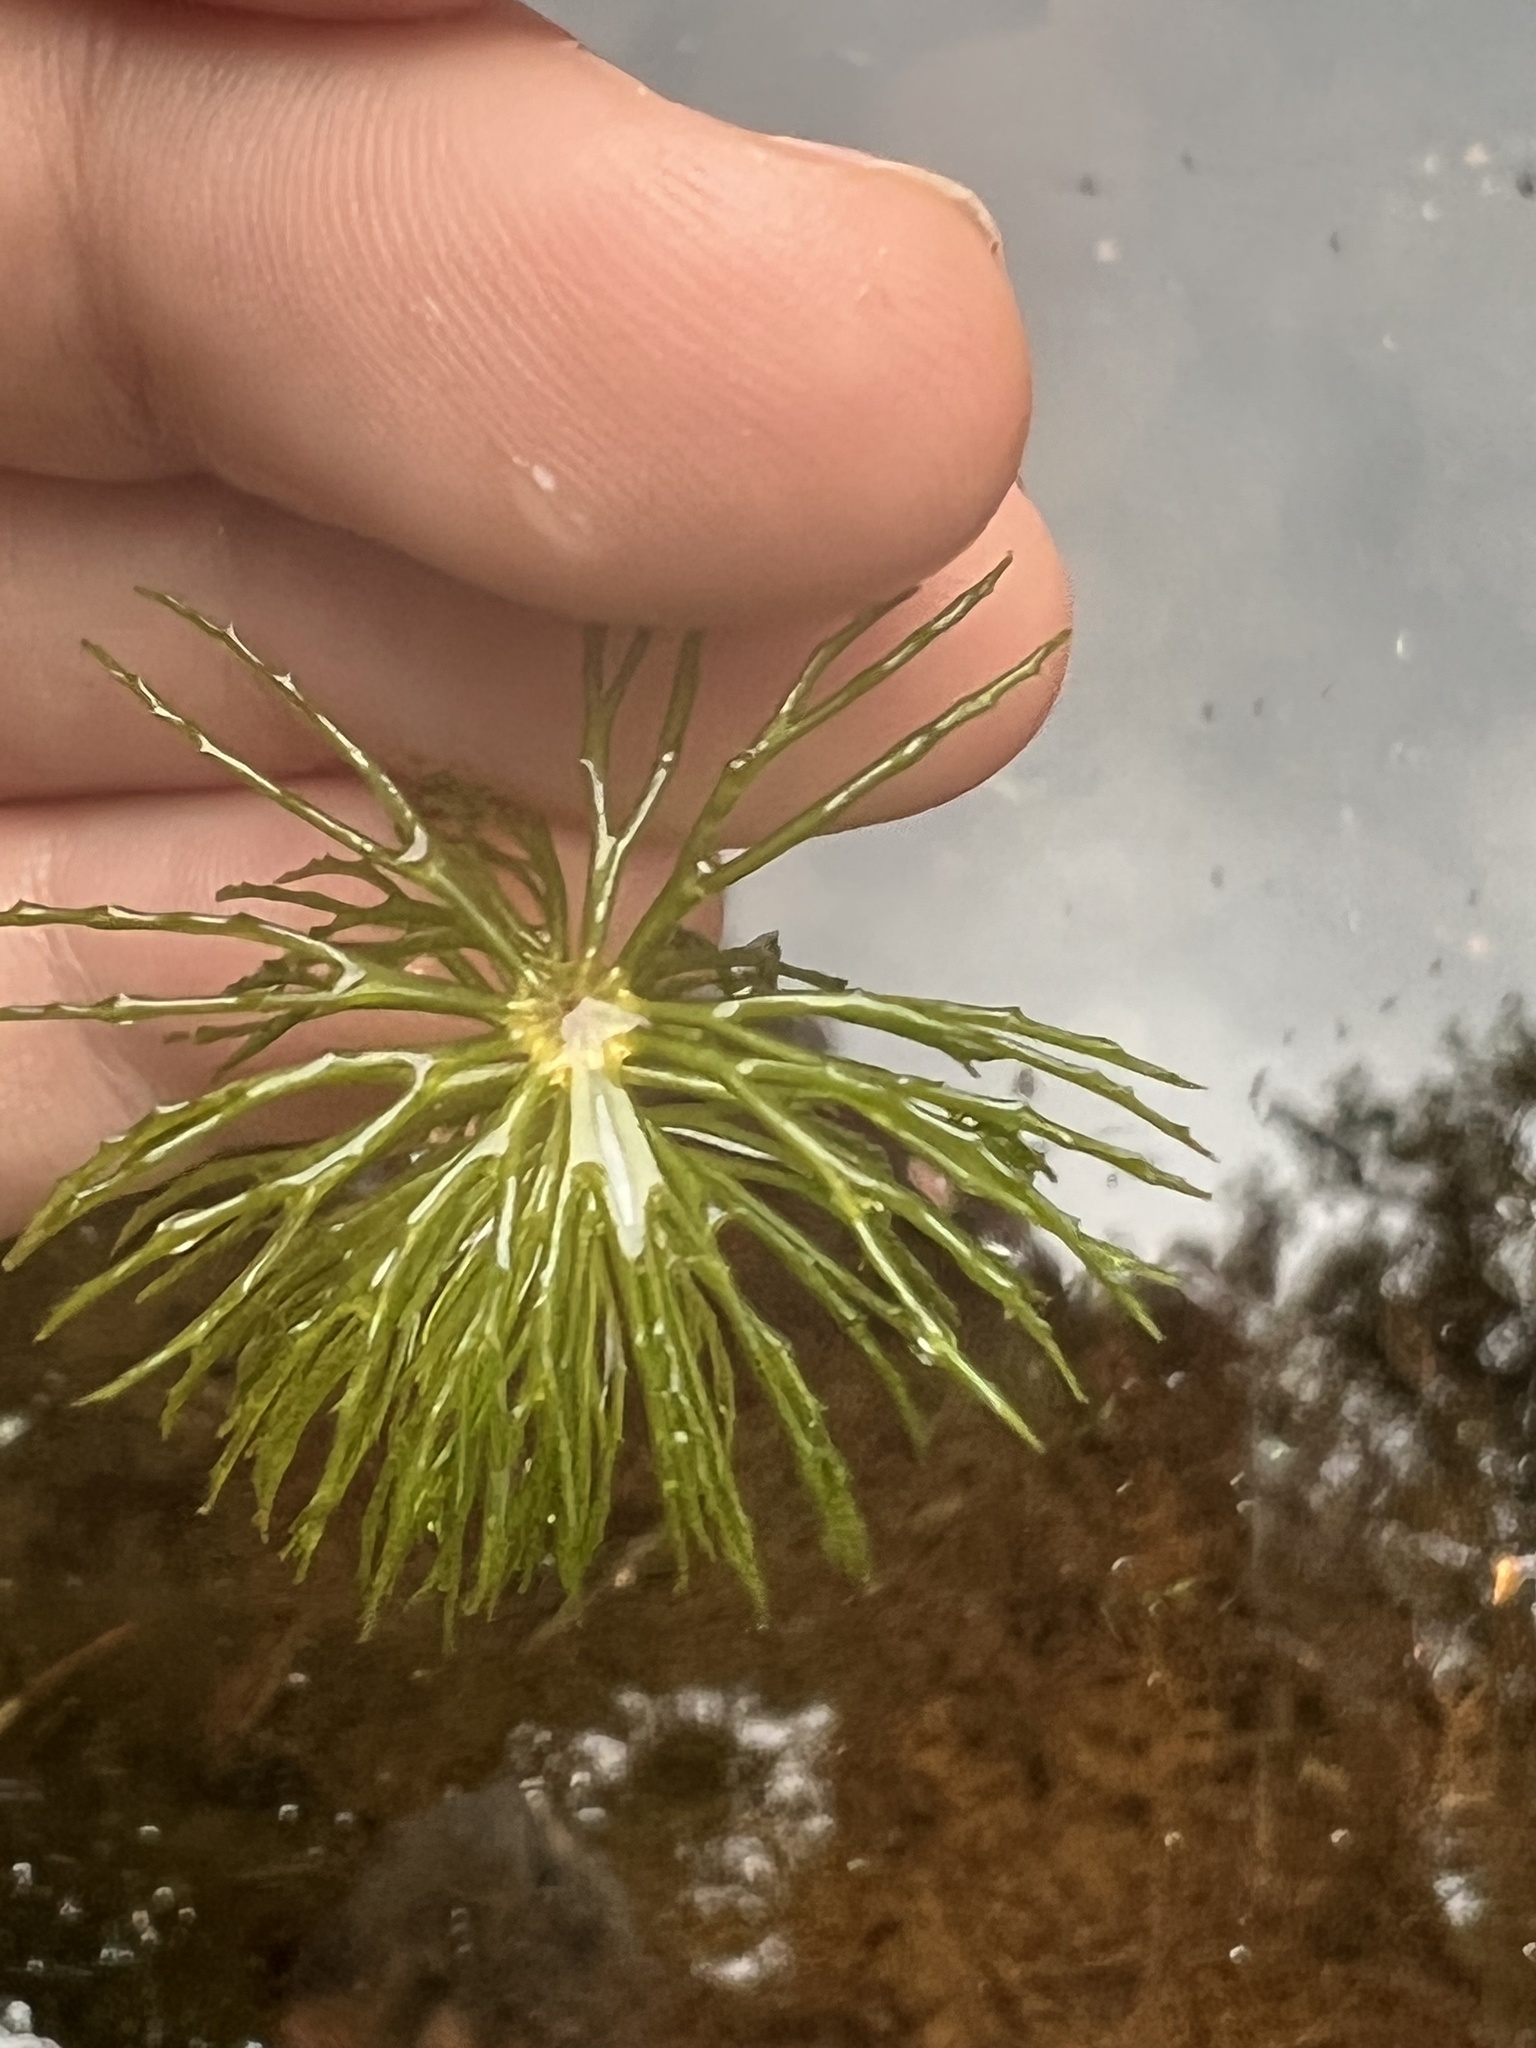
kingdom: Plantae
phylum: Tracheophyta
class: Magnoliopsida
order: Ceratophyllales
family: Ceratophyllaceae
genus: Ceratophyllum
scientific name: Ceratophyllum demersum
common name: Rigid hornwort
